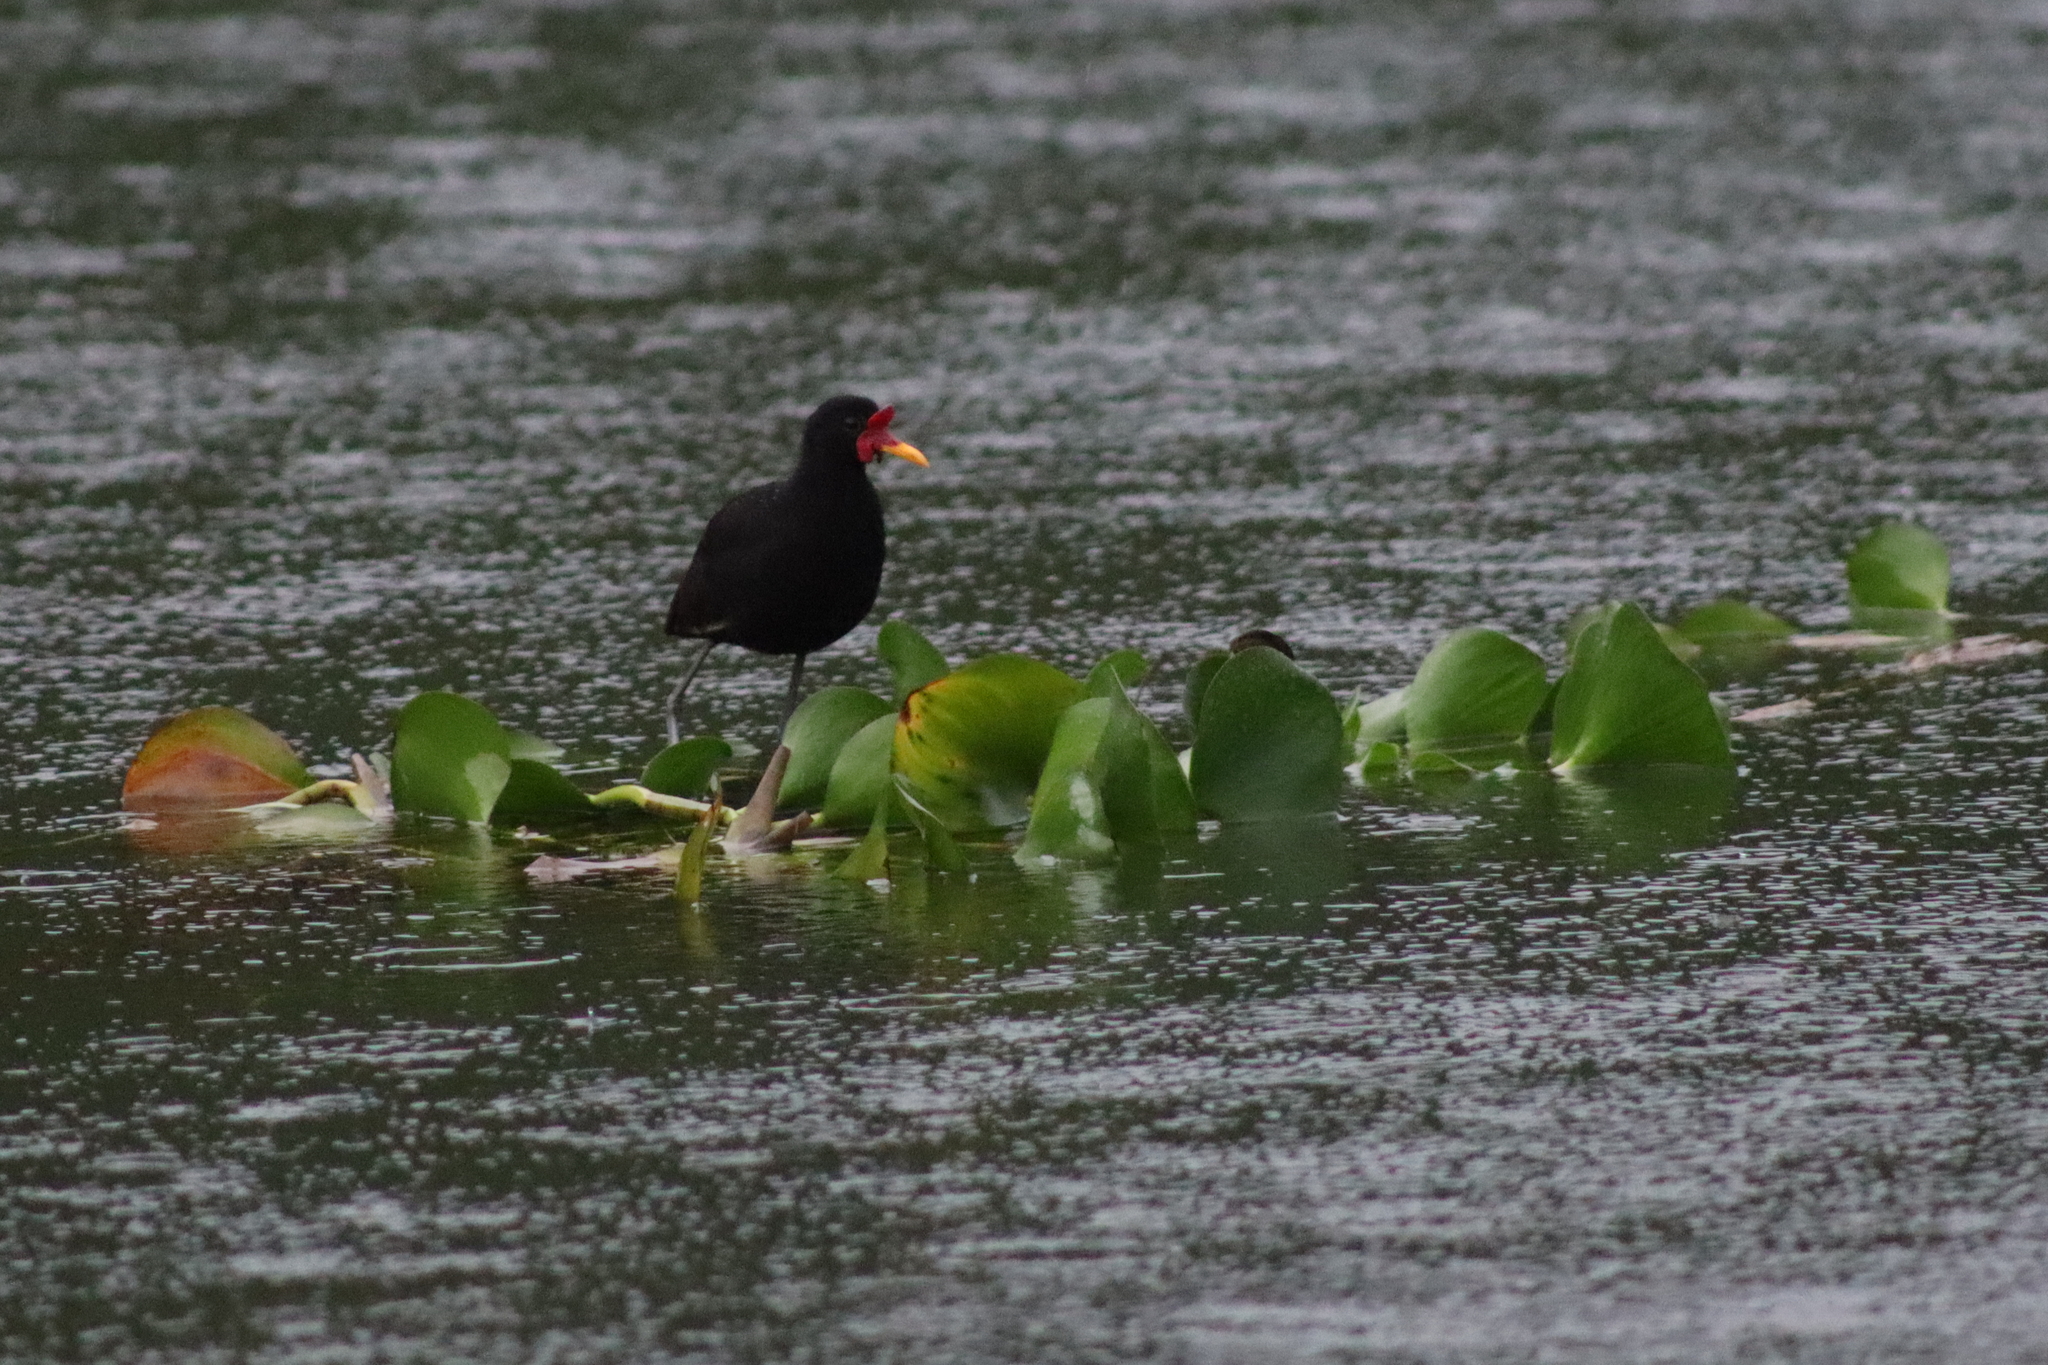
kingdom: Animalia
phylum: Chordata
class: Aves
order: Charadriiformes
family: Jacanidae
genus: Jacana
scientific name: Jacana jacana
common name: Wattled jacana
